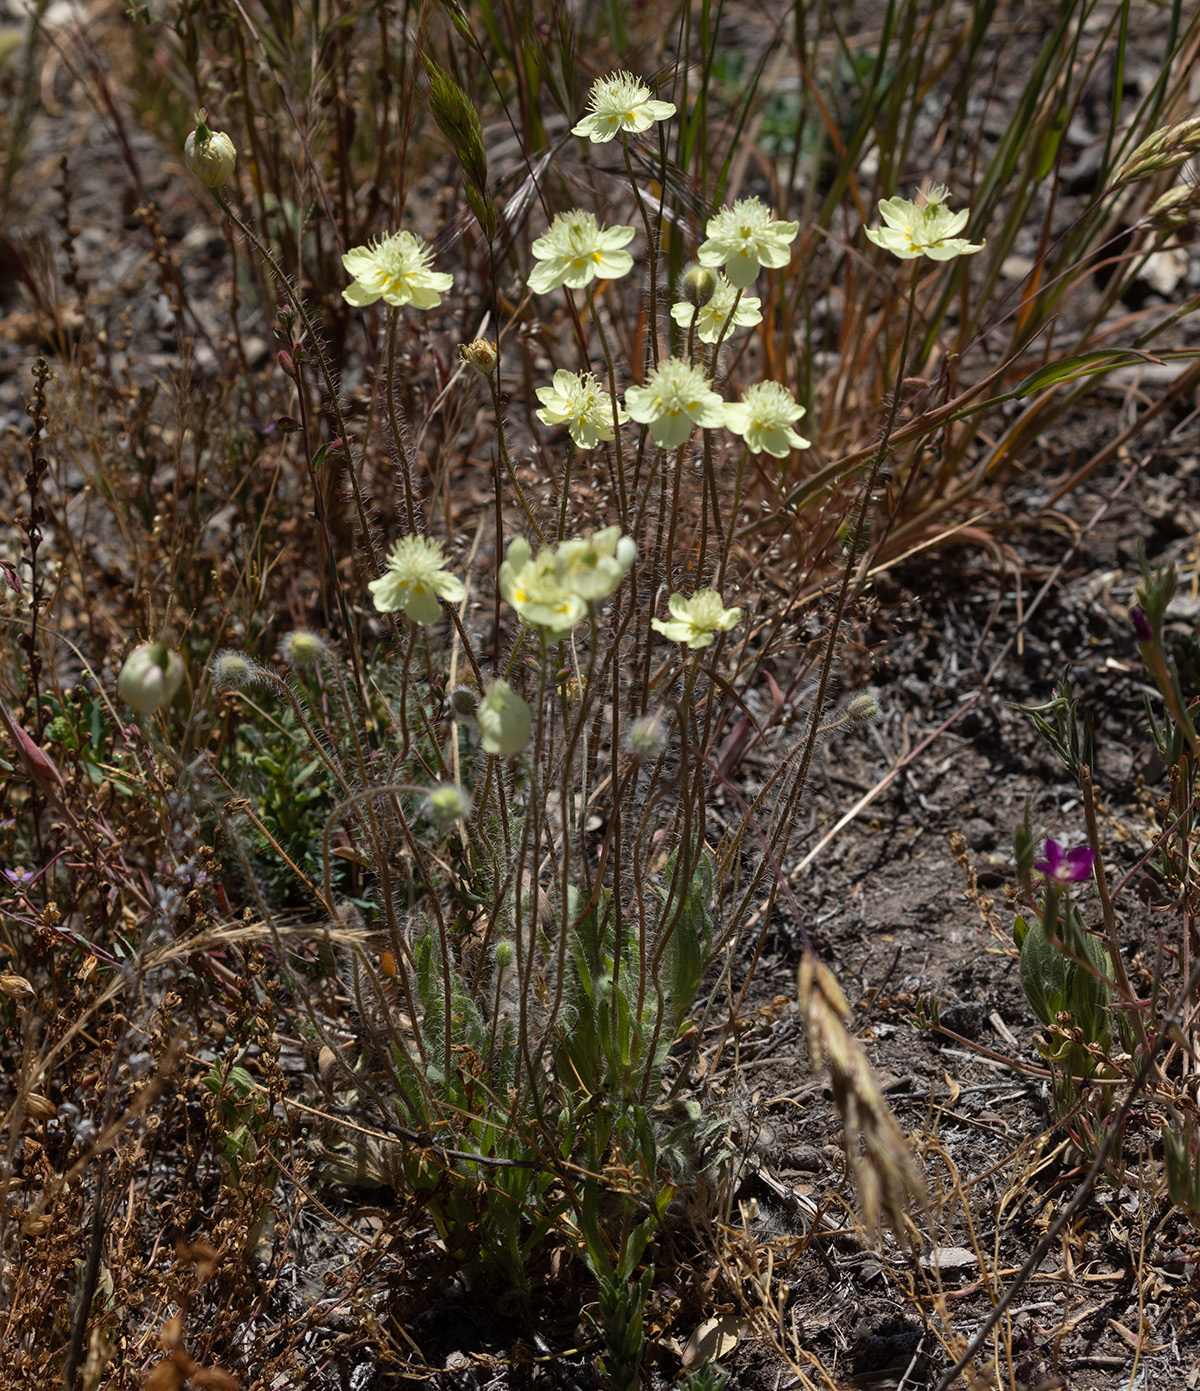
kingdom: Plantae
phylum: Tracheophyta
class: Magnoliopsida
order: Ranunculales
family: Papaveraceae
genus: Platystemon
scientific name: Platystemon californicus
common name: Cream-cups
